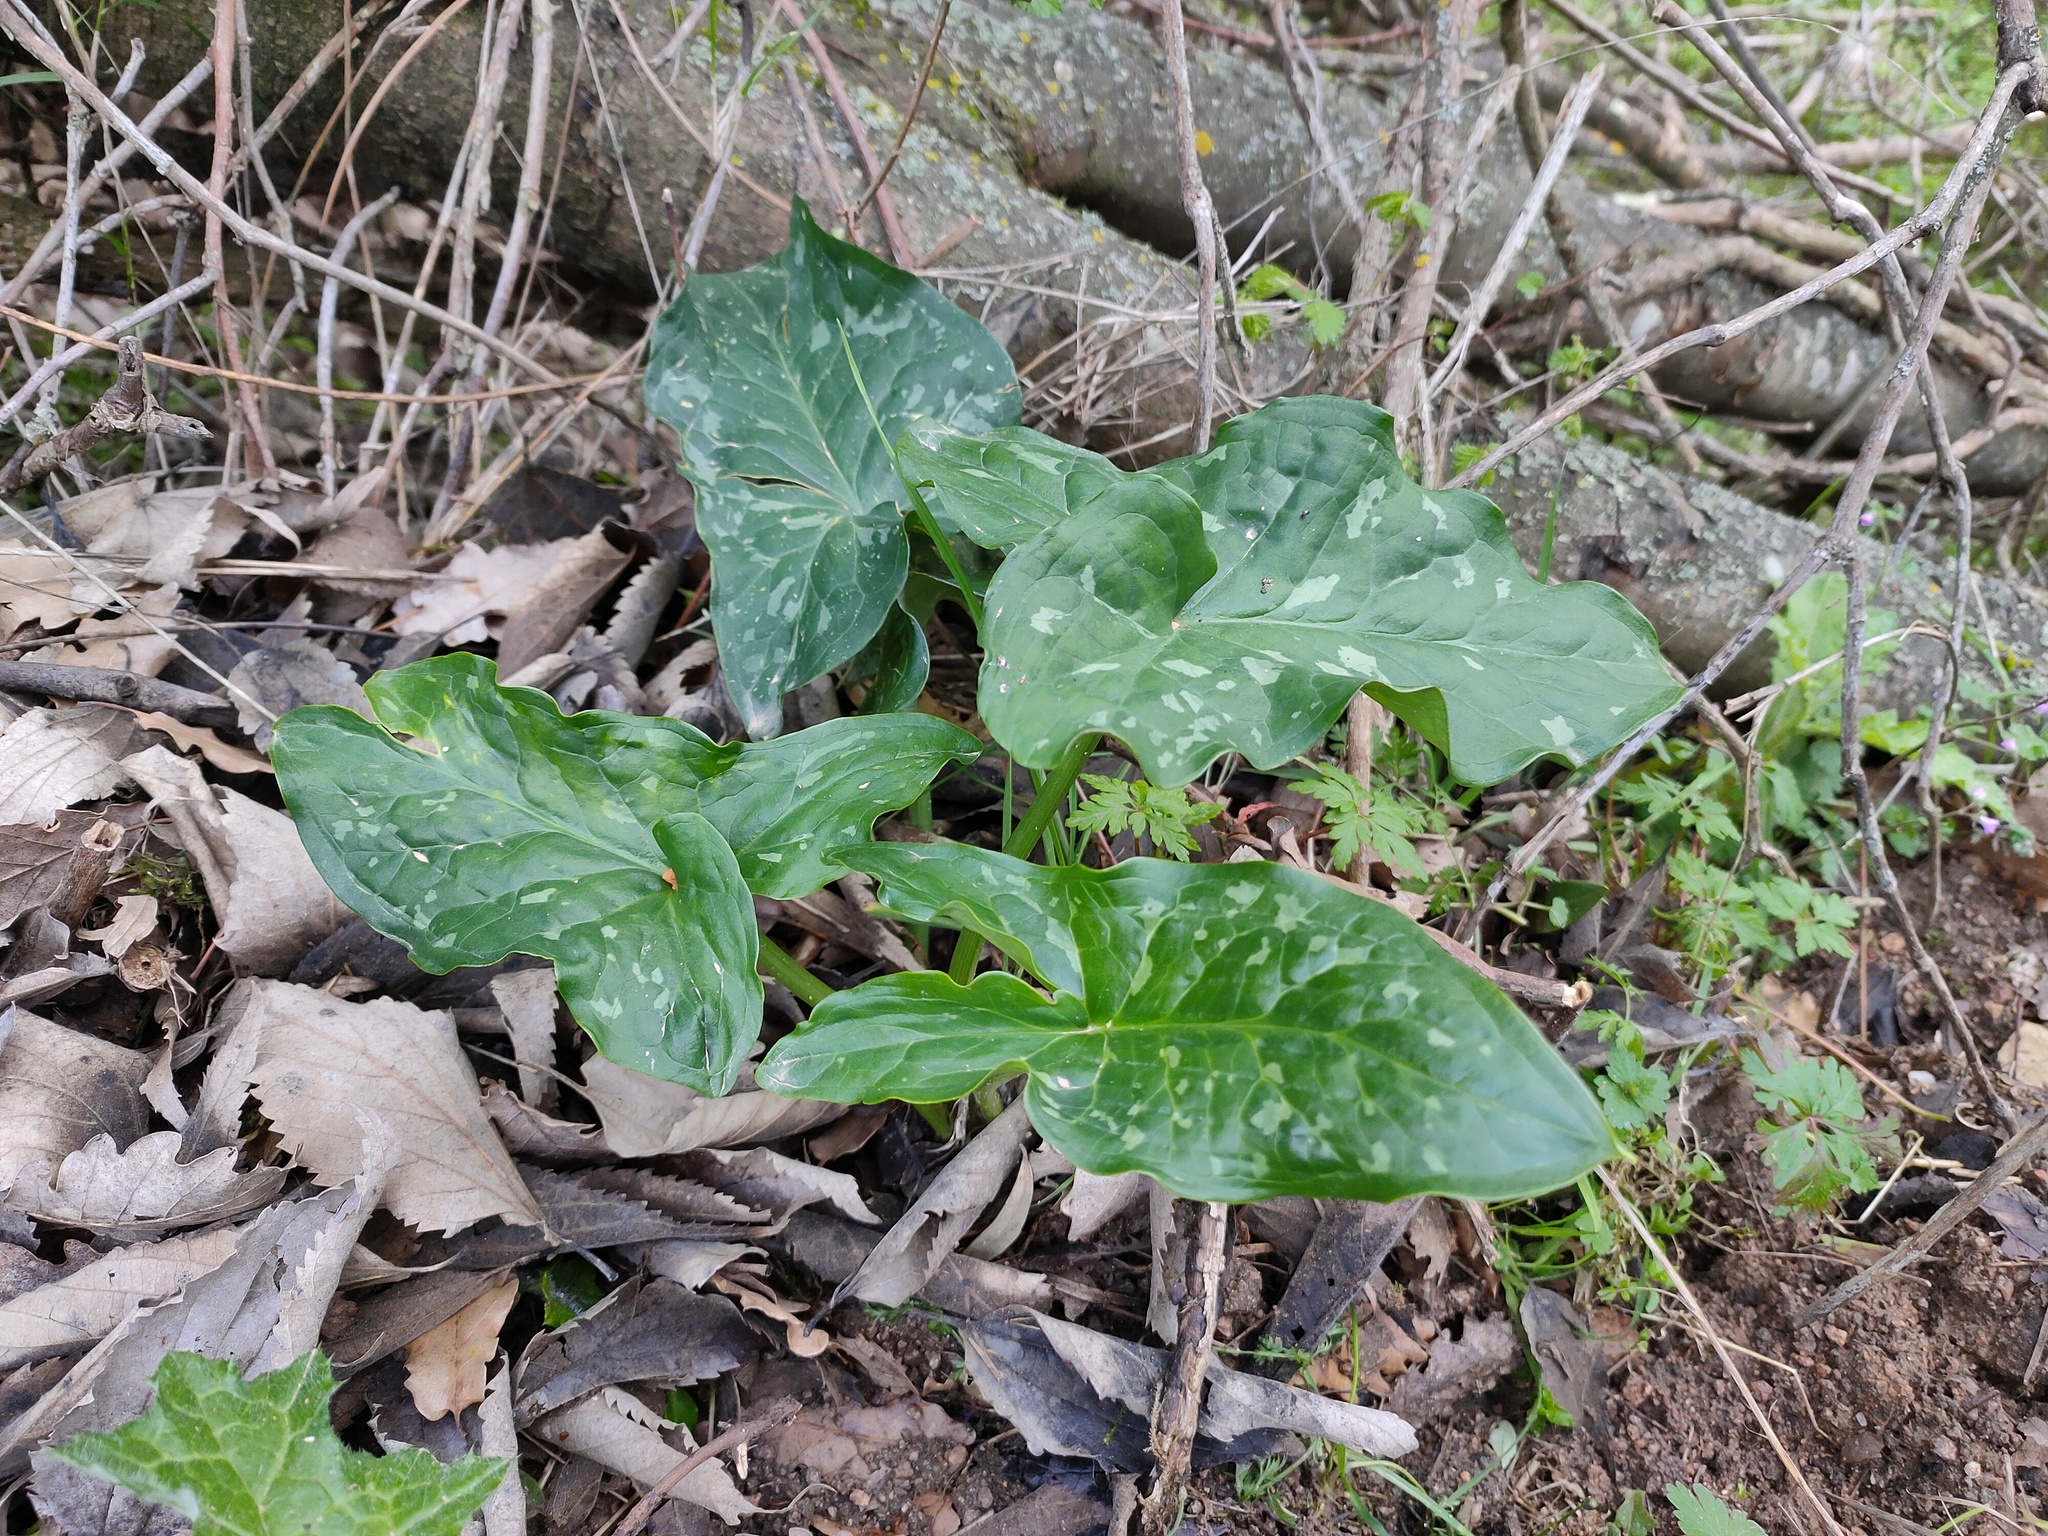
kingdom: Plantae
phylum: Tracheophyta
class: Liliopsida
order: Alismatales
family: Araceae
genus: Arum
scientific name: Arum italicum
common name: Italian lords-and-ladies
